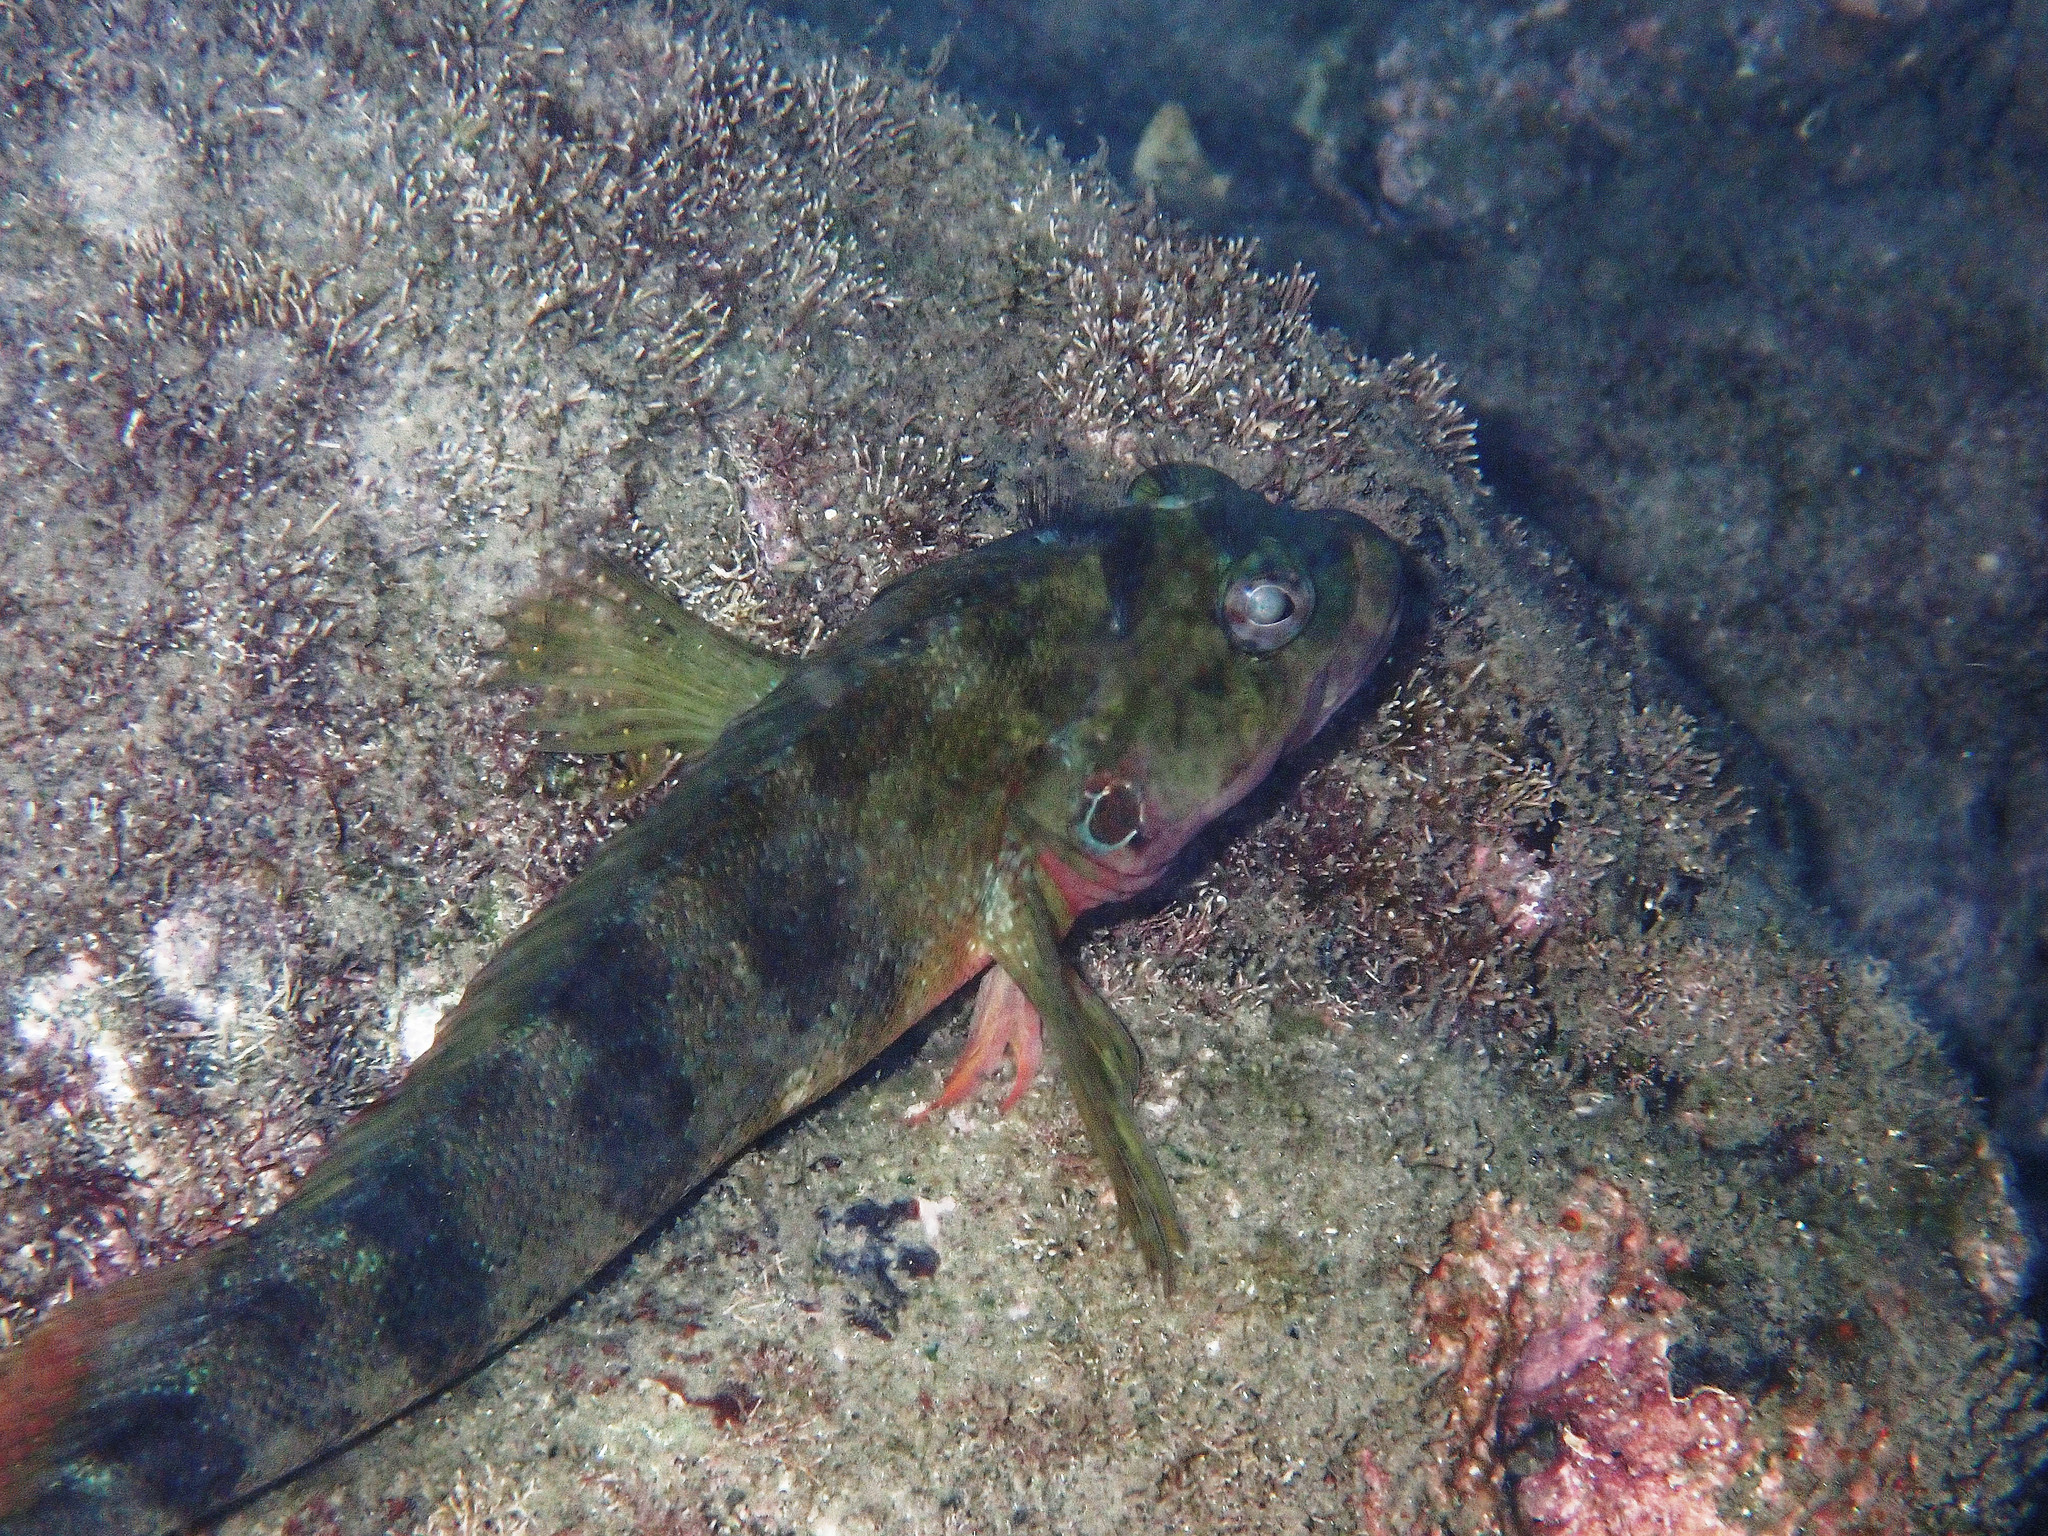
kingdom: Animalia
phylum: Chordata
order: Perciformes
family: Labrisomidae
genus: Labrisomus
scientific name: Labrisomus nuchipinnis
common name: Hairy blenny
